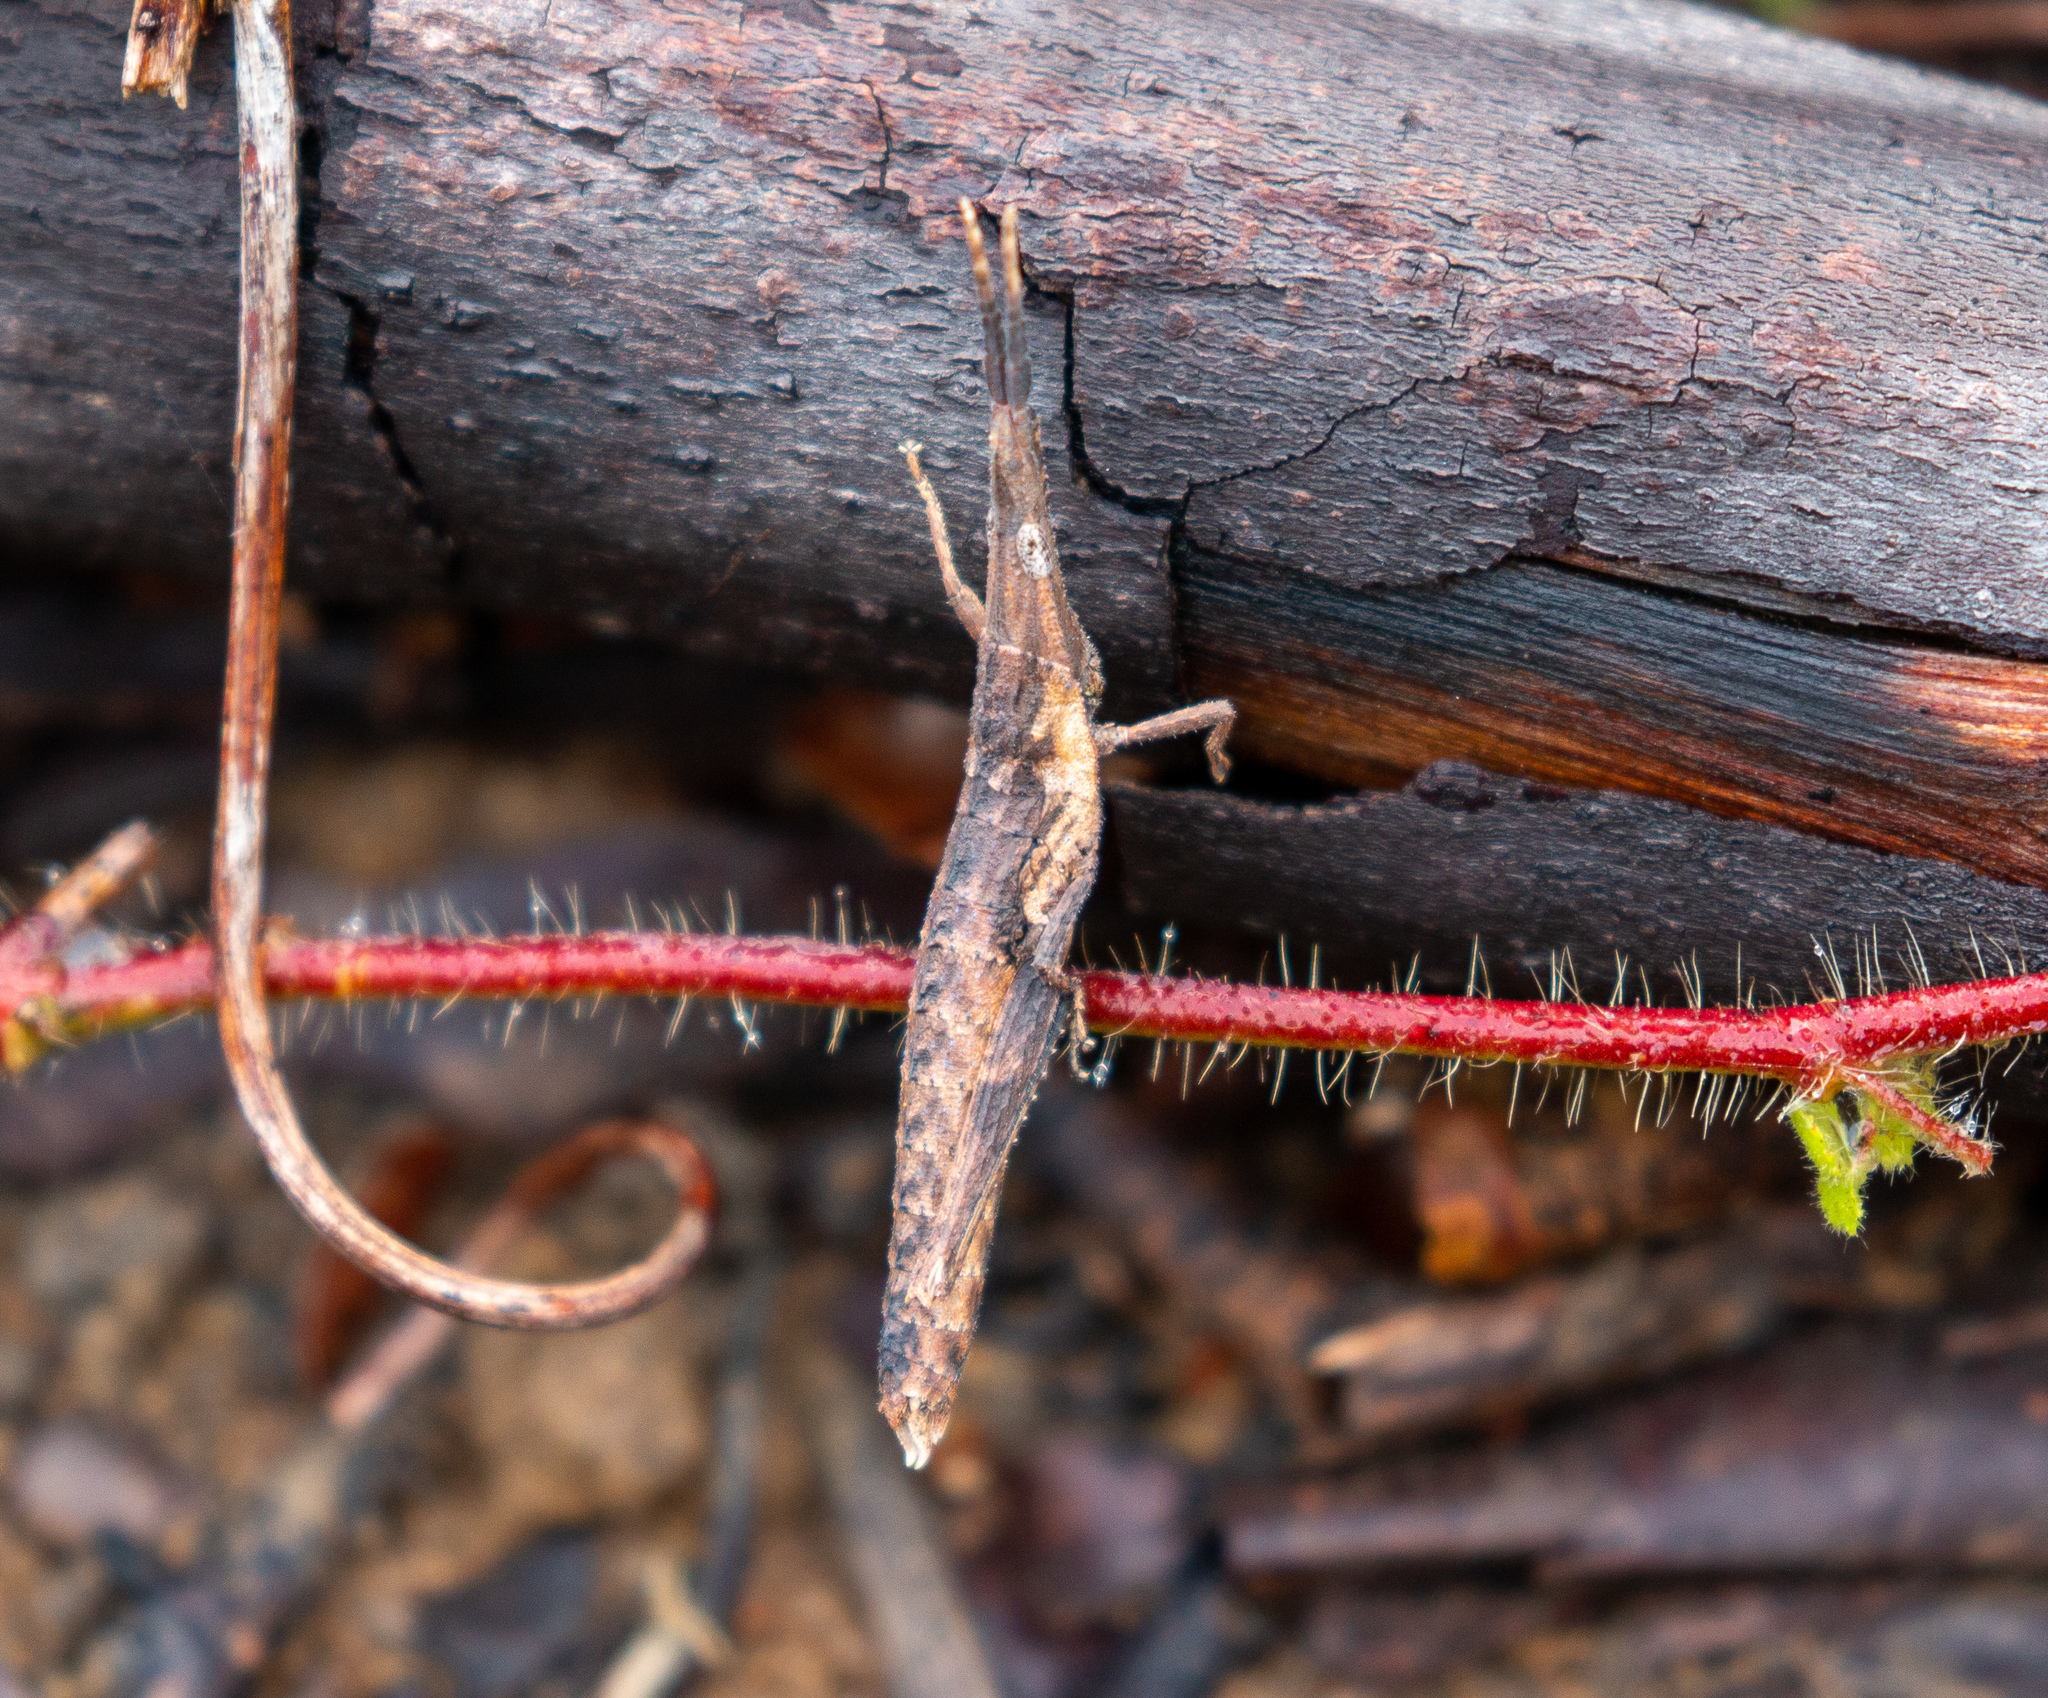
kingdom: Animalia
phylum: Arthropoda
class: Insecta
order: Orthoptera
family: Pyrgomorphidae
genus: Algete
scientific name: Algete brunneri
